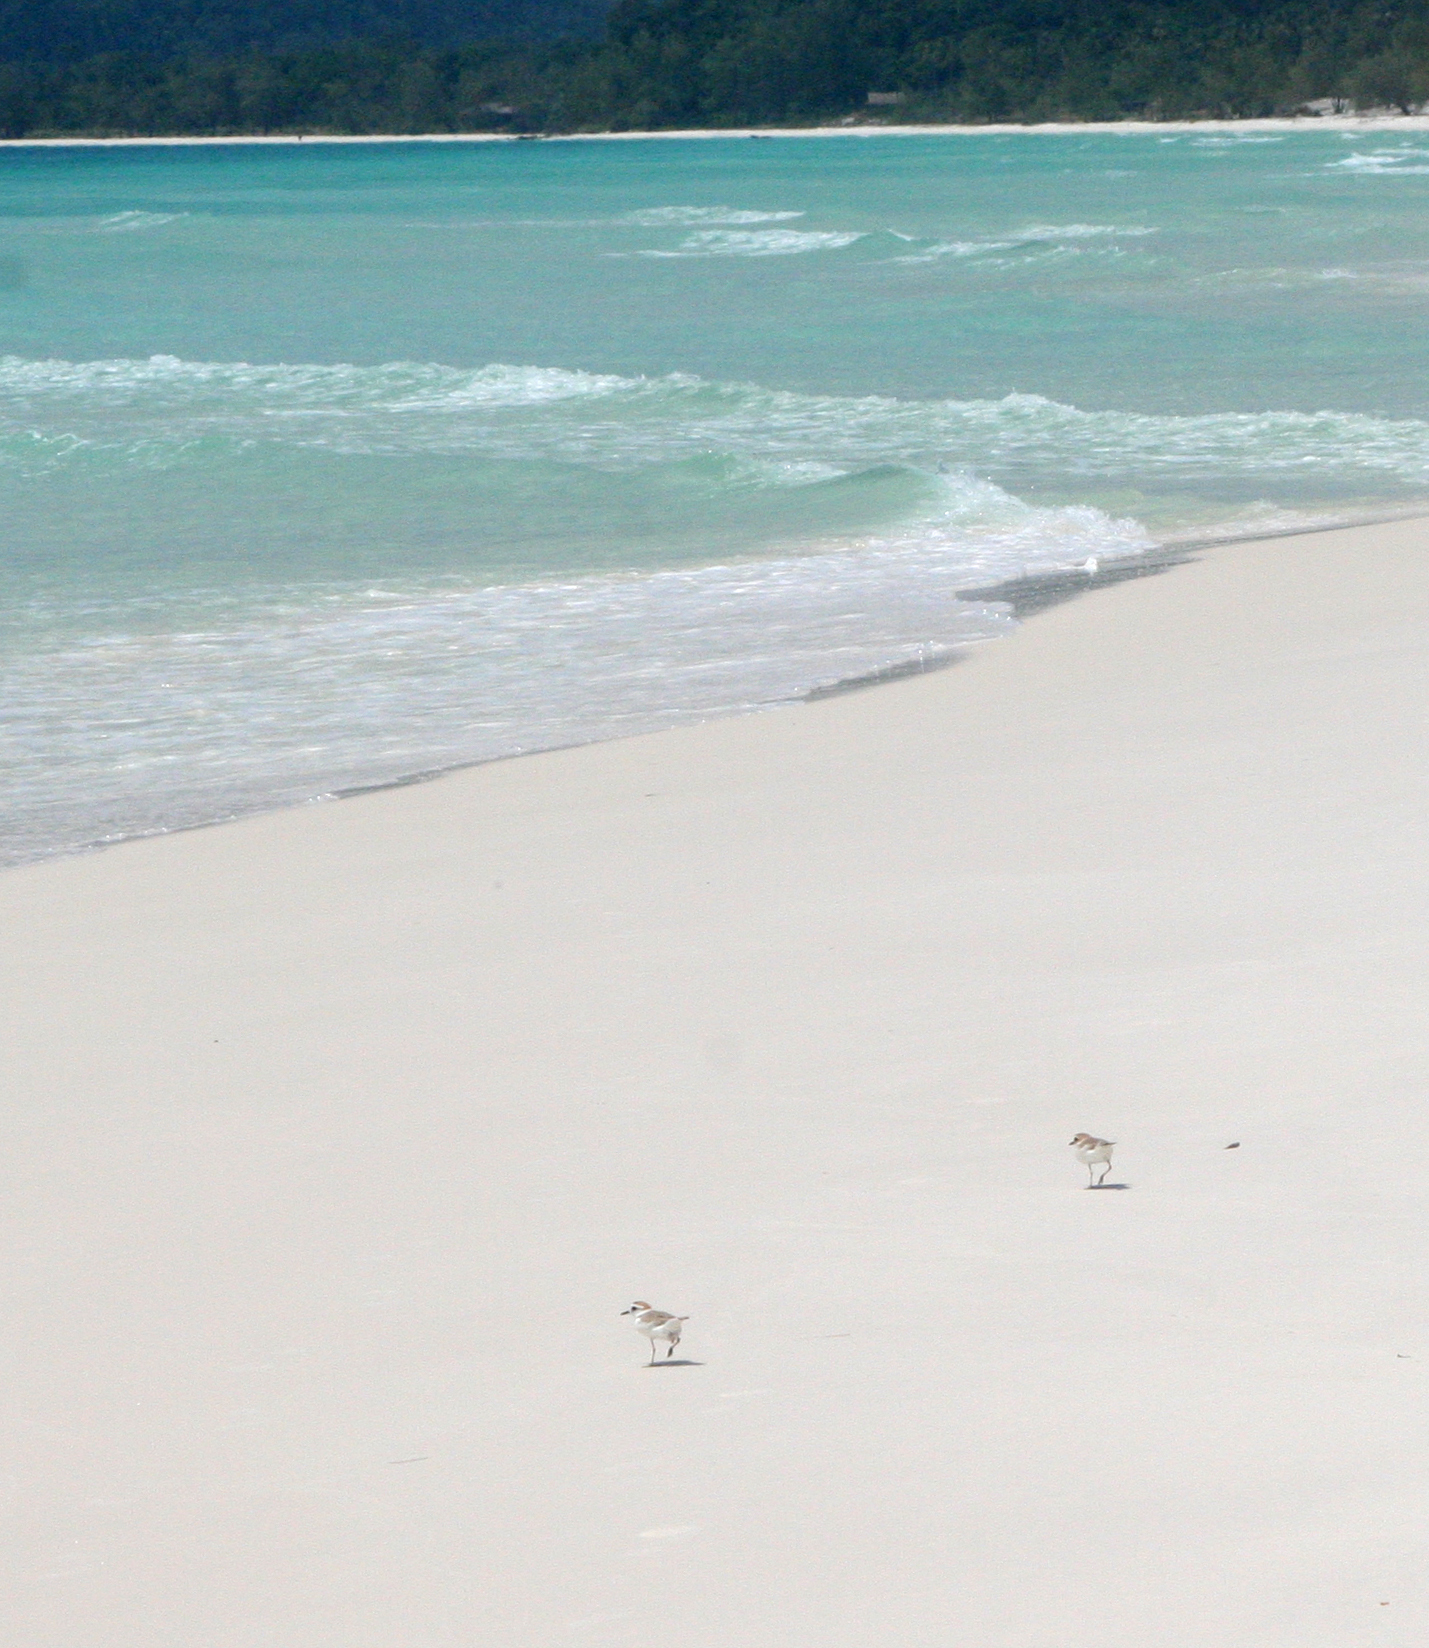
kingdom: Animalia
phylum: Chordata
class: Aves
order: Charadriiformes
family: Charadriidae
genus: Anarhynchus
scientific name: Anarhynchus
